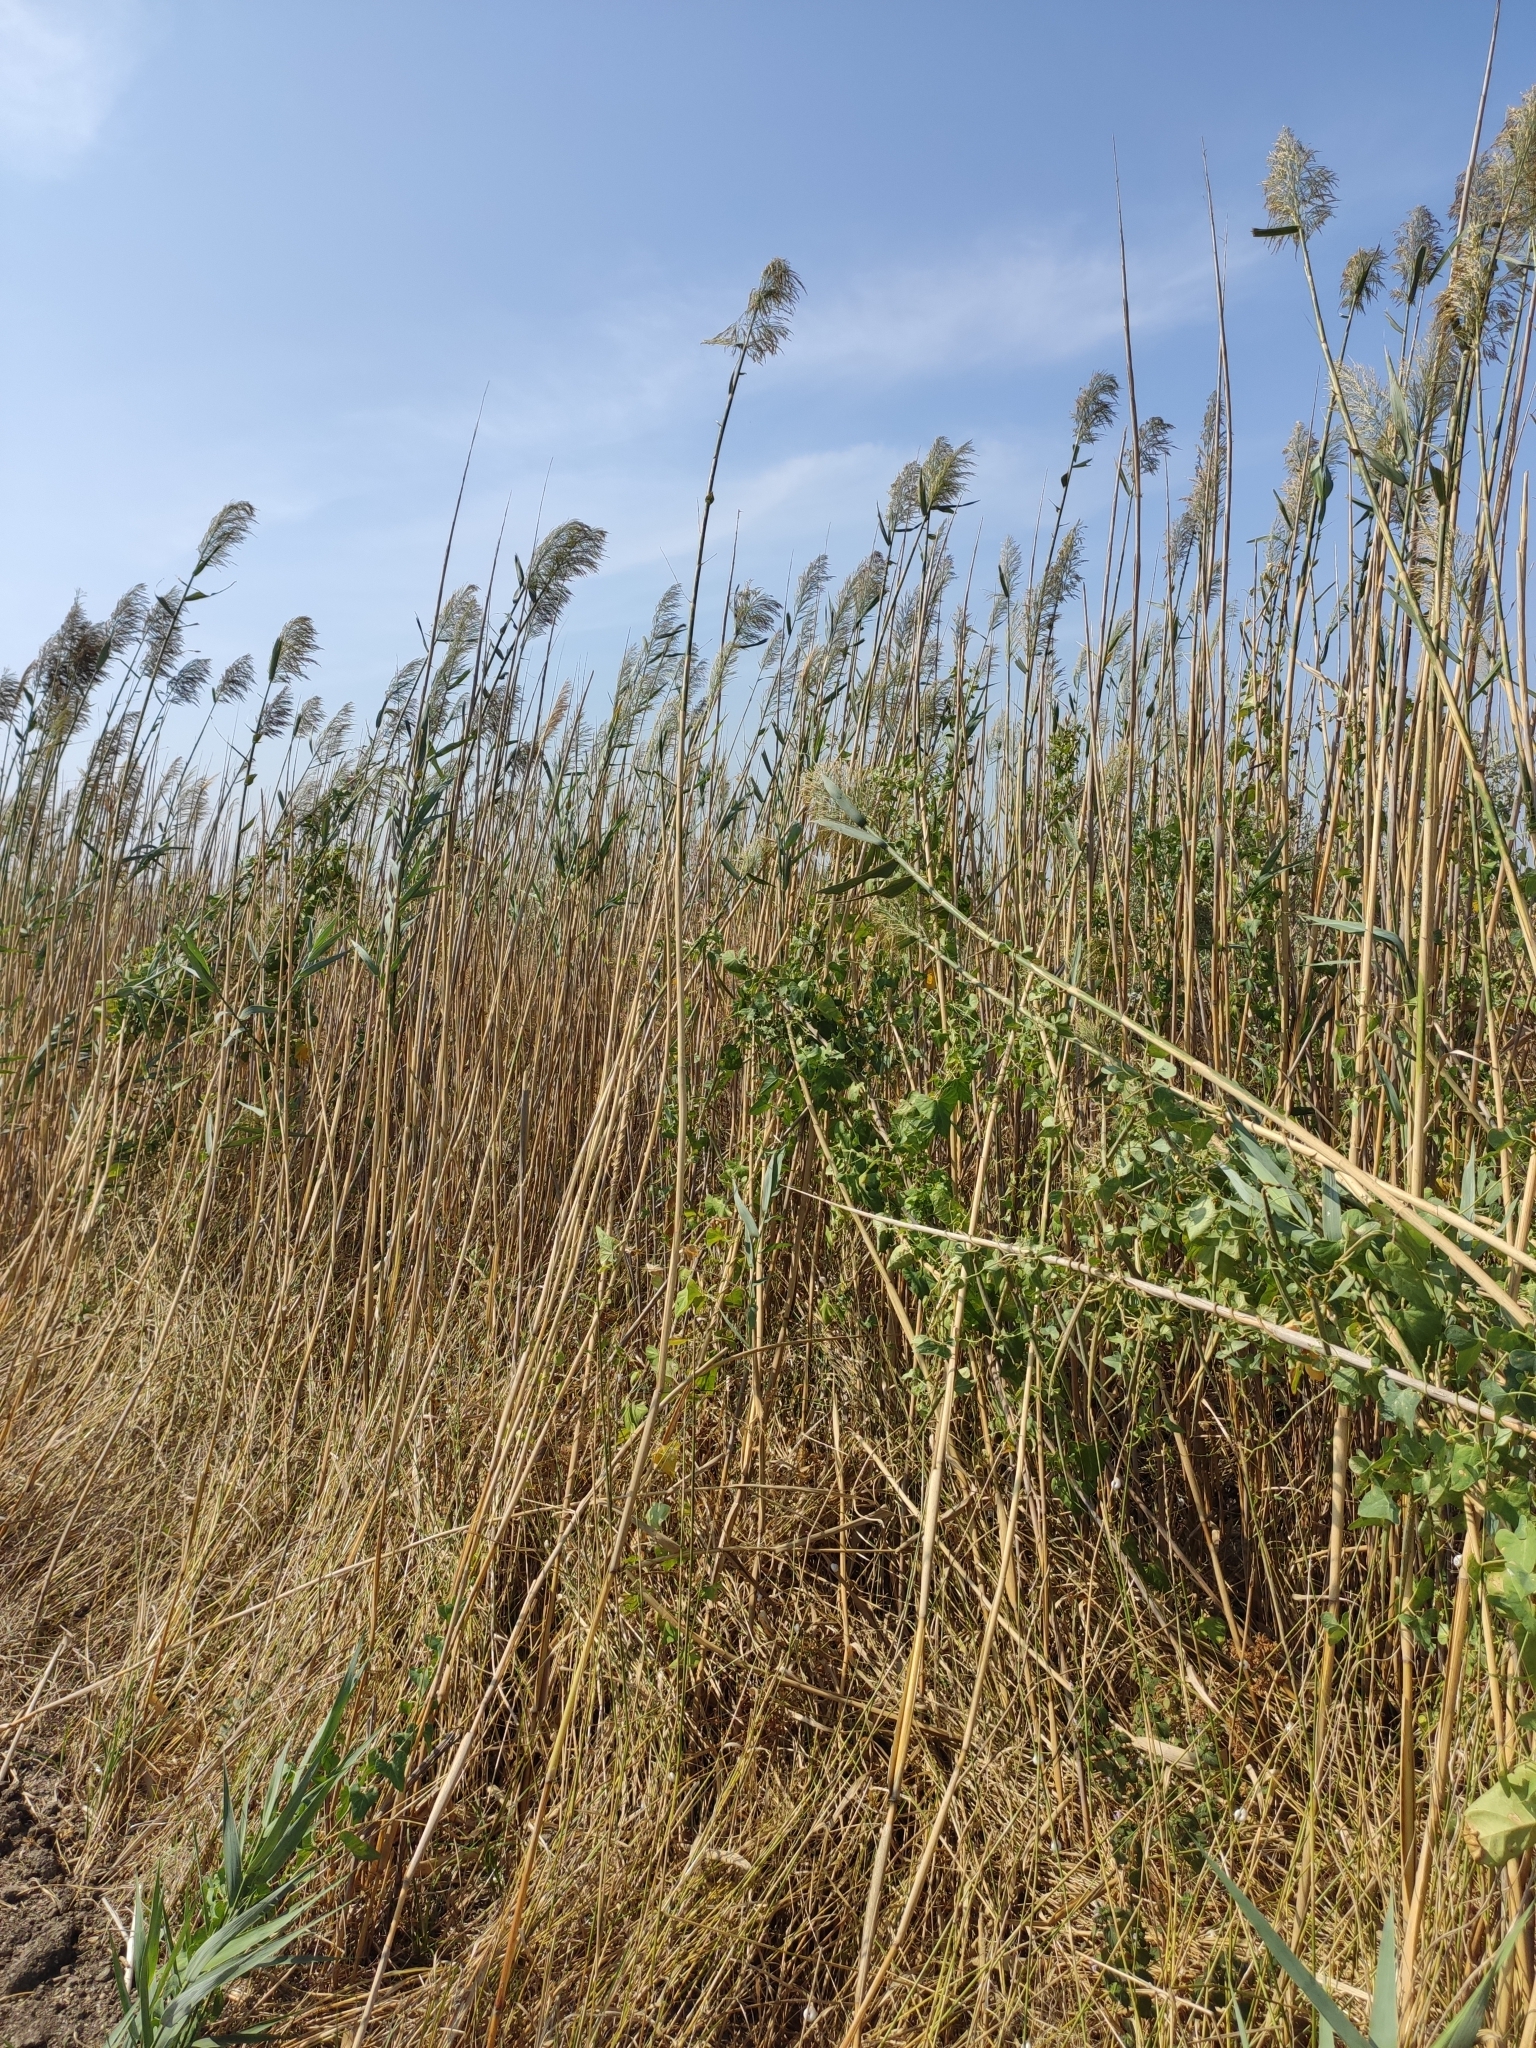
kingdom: Plantae
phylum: Tracheophyta
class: Liliopsida
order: Poales
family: Poaceae
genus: Phragmites
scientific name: Phragmites australis
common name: Common reed
